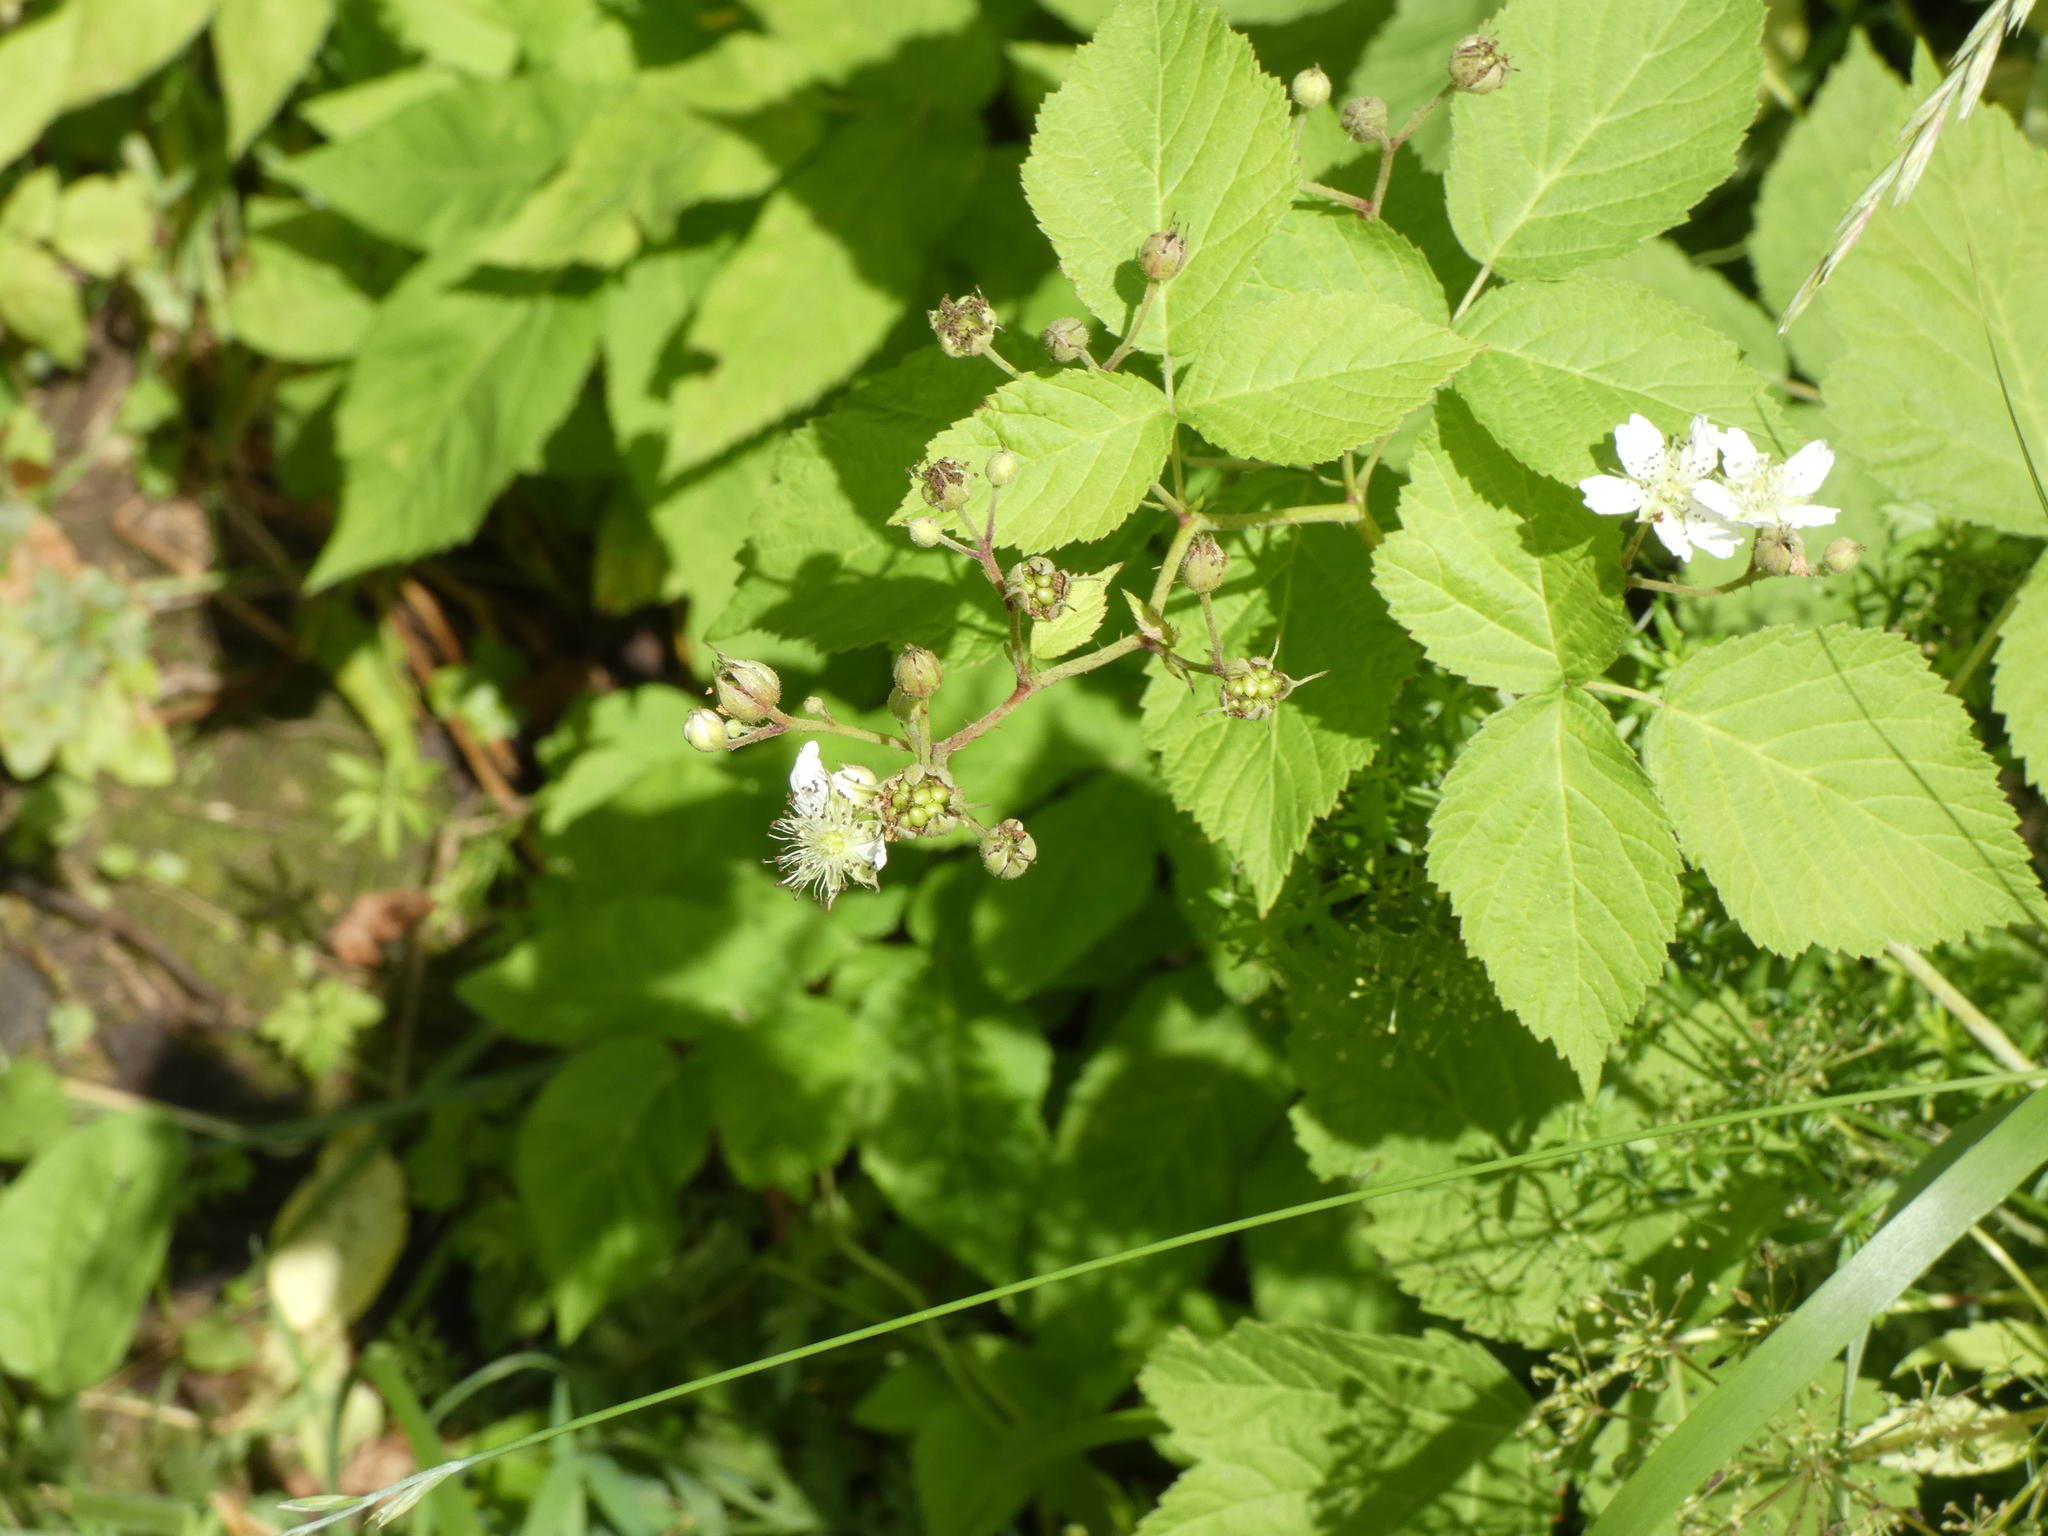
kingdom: Plantae
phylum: Tracheophyta
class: Magnoliopsida
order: Rosales
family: Rosaceae
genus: Rubus
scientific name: Rubus caesius
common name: Dewberry
